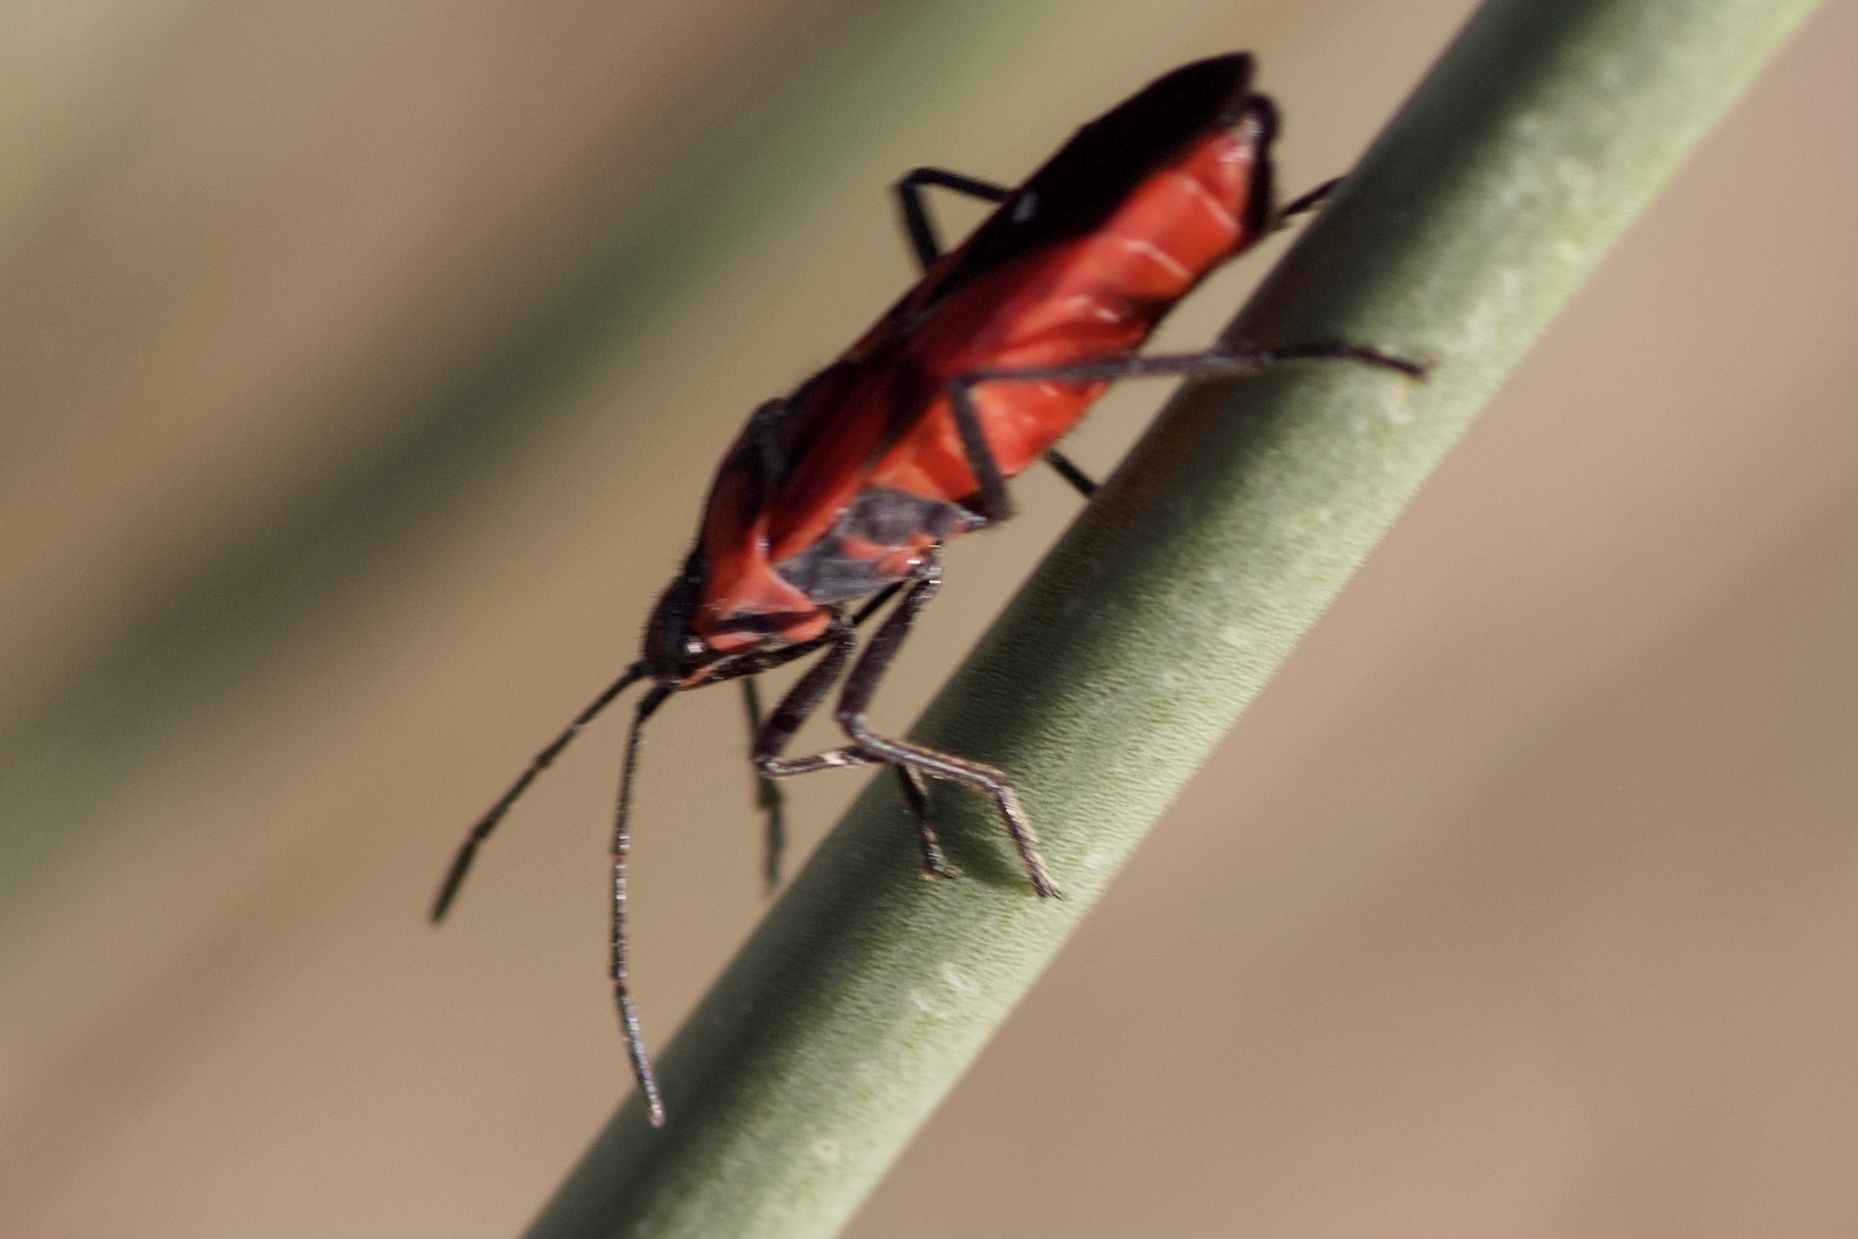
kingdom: Animalia
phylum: Arthropoda
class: Insecta
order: Hemiptera
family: Lygaeidae
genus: Oncopeltus
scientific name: Oncopeltus sanguinolentus
